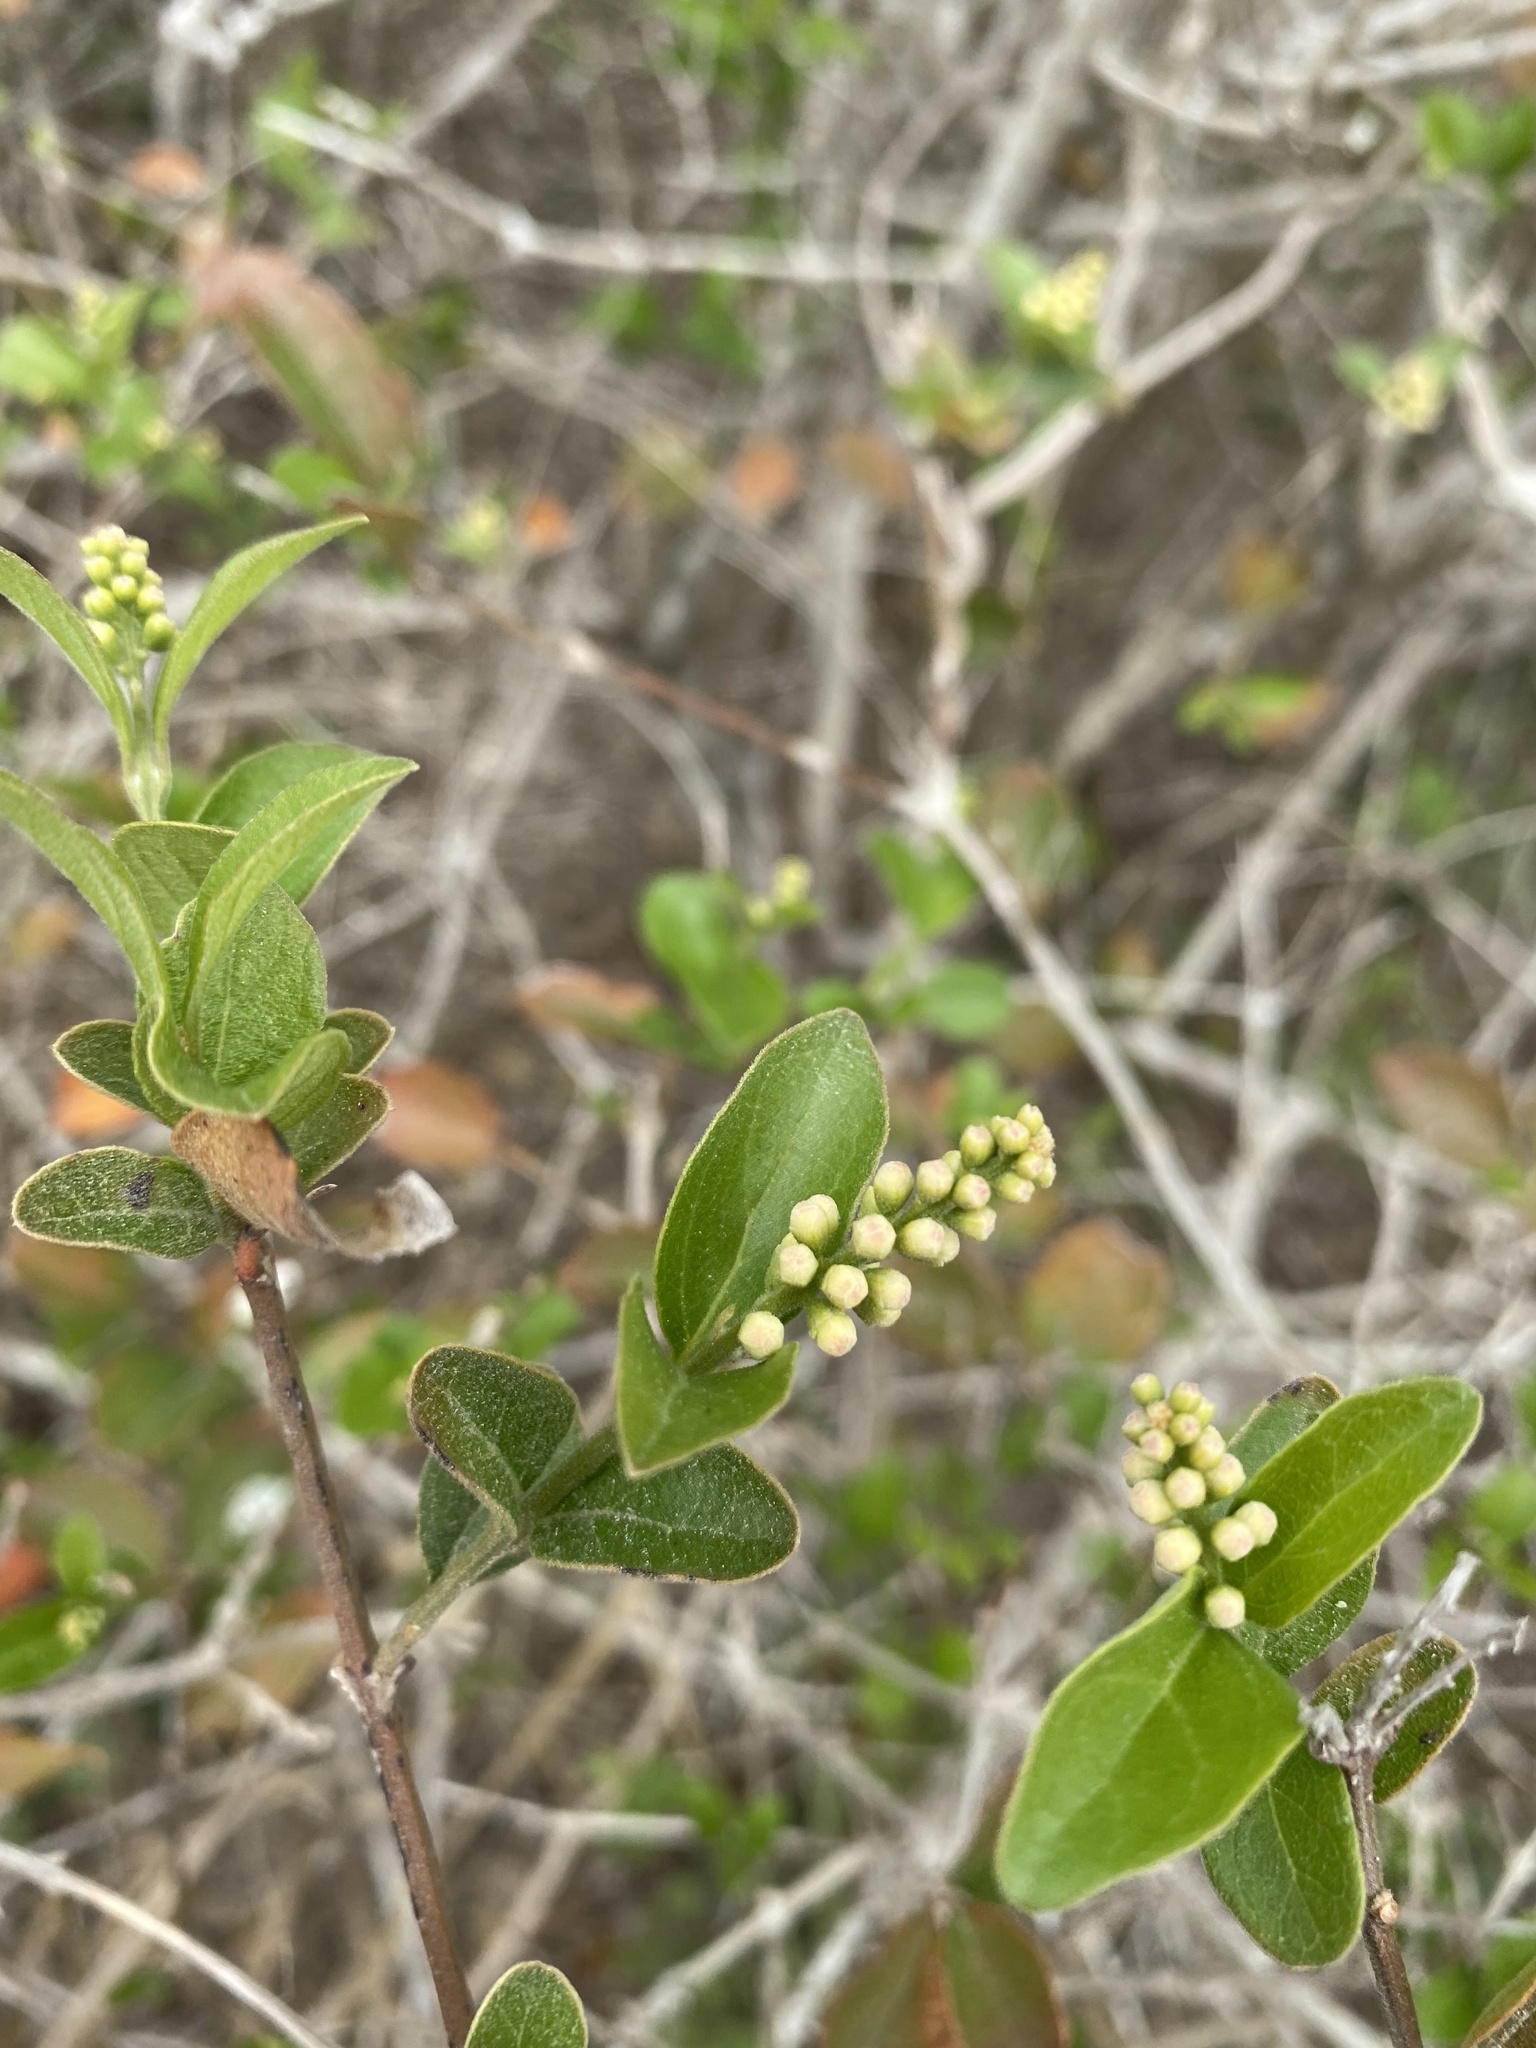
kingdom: Plantae
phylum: Tracheophyta
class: Magnoliopsida
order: Lamiales
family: Verbenaceae
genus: Citharexylum
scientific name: Citharexylum berlandieri
